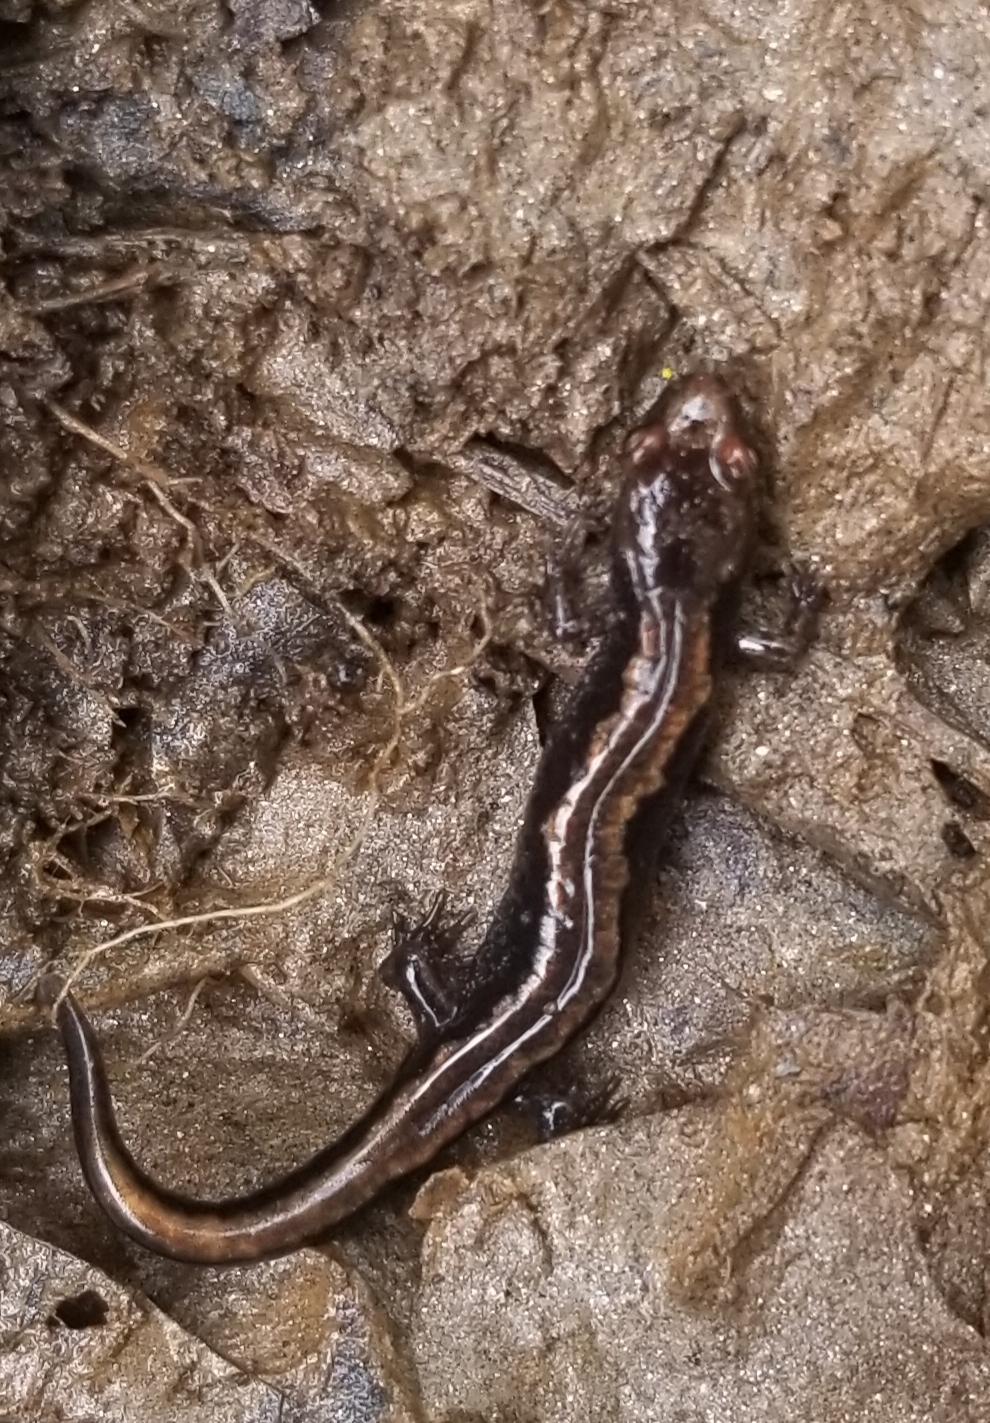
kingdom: Animalia
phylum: Chordata
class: Amphibia
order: Caudata
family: Plethodontidae
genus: Desmognathus
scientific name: Desmognathus carolinensis
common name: Carolina mountain dusky salamander
